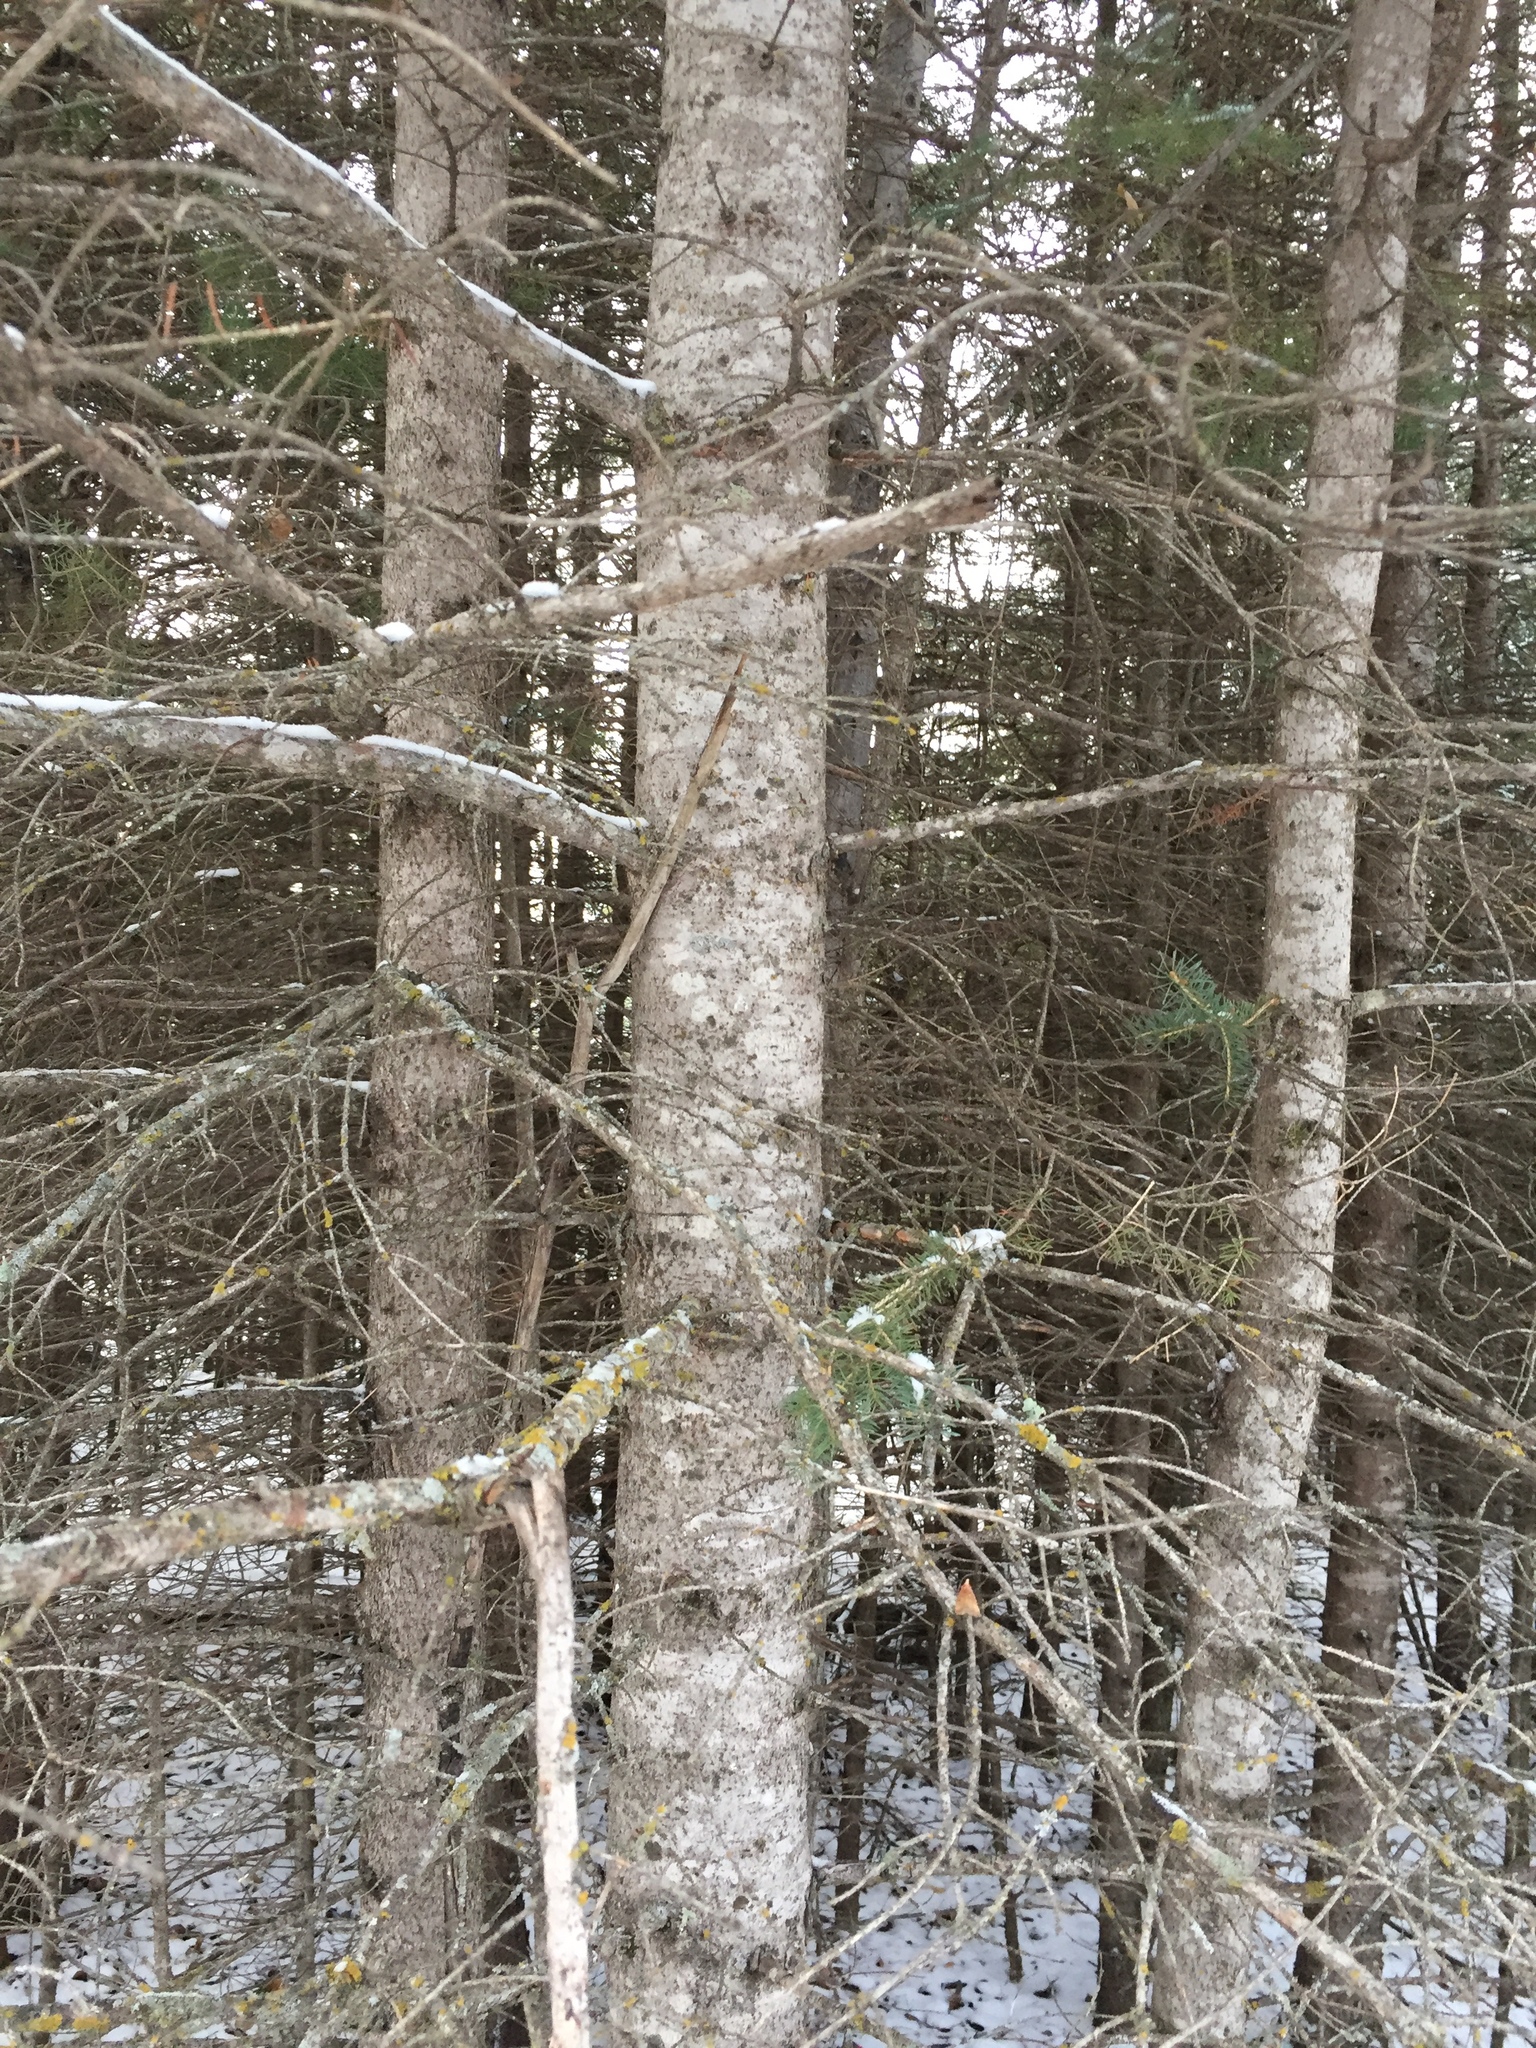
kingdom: Plantae
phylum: Tracheophyta
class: Pinopsida
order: Pinales
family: Pinaceae
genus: Abies
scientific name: Abies balsamea
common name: Balsam fir
